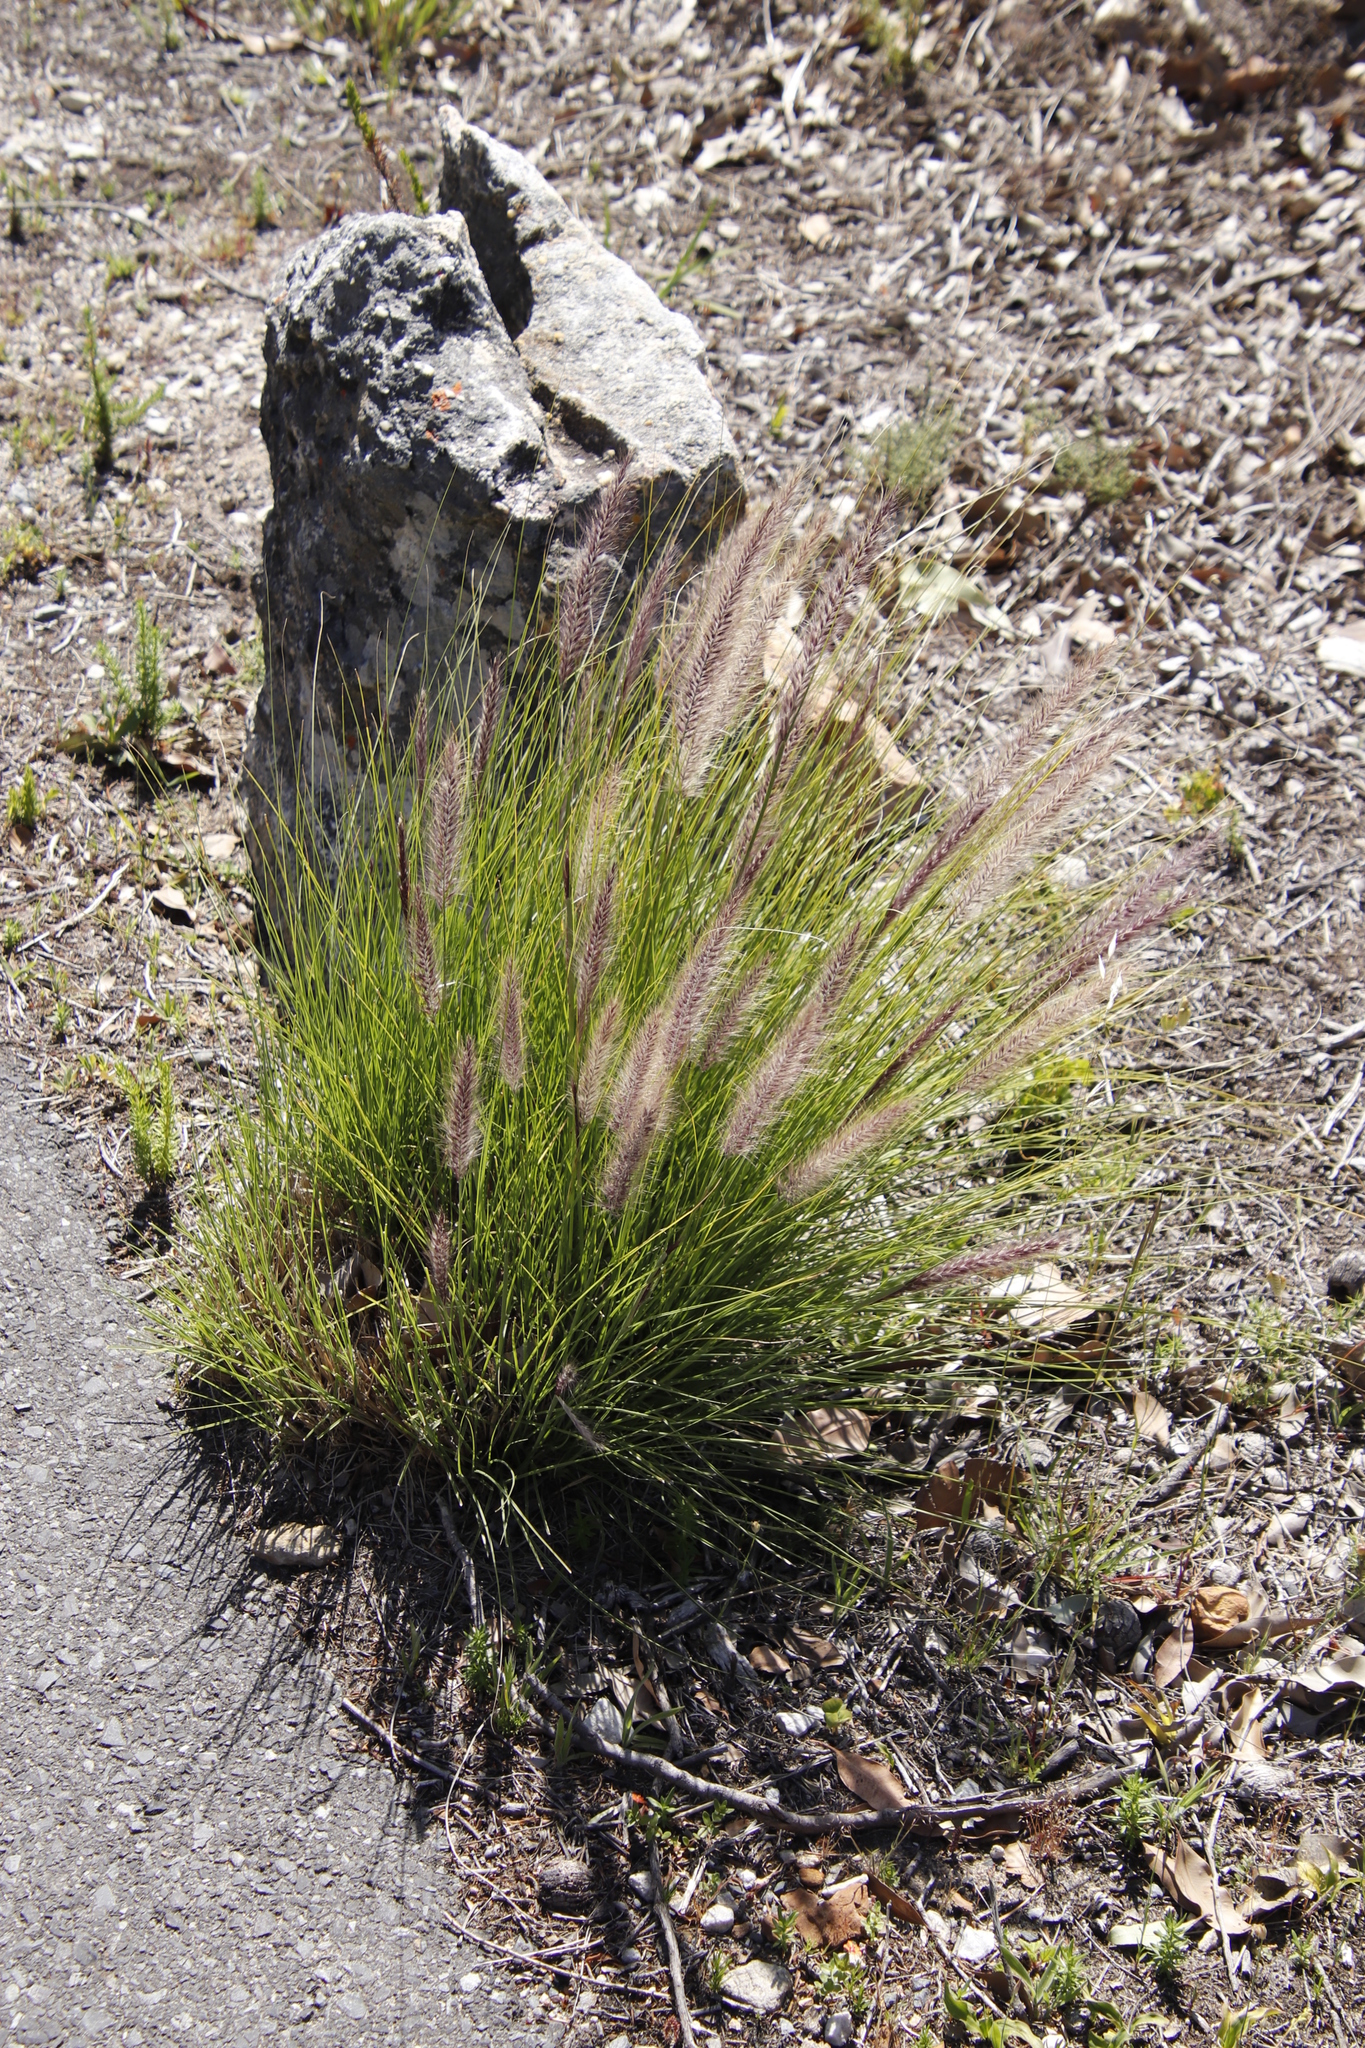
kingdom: Plantae
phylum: Tracheophyta
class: Liliopsida
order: Poales
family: Poaceae
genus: Cenchrus
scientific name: Cenchrus setaceus
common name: Crimson fountaingrass
